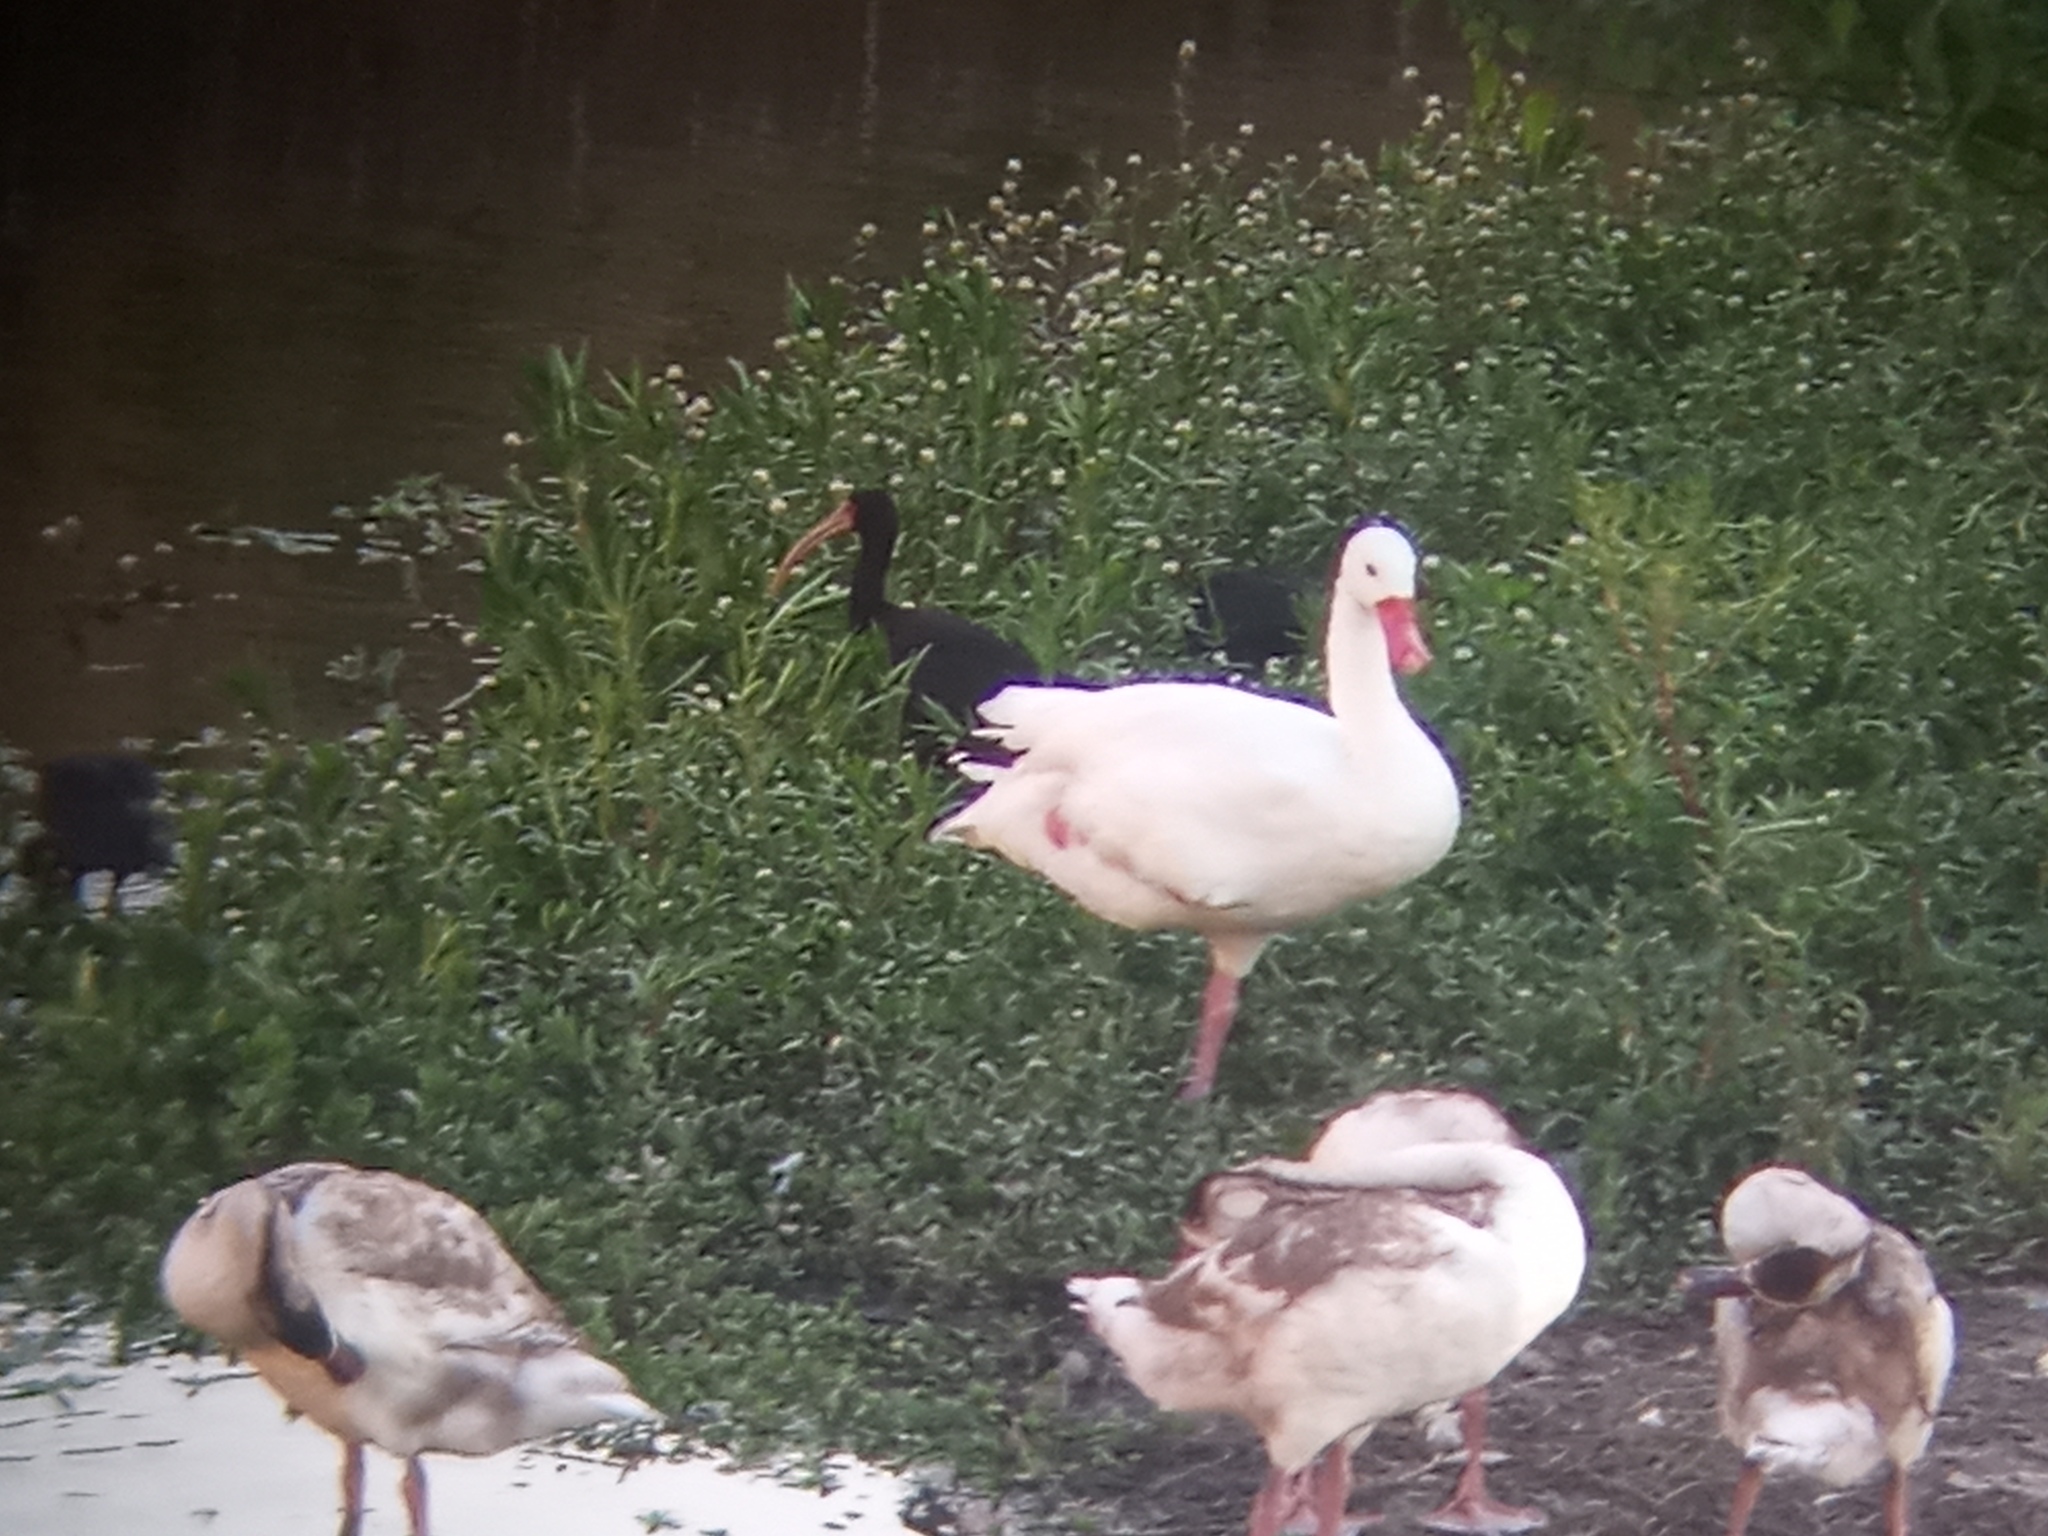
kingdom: Animalia
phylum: Chordata
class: Aves
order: Pelecaniformes
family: Threskiornithidae
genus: Phimosus
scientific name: Phimosus infuscatus
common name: Bare-faced ibis
